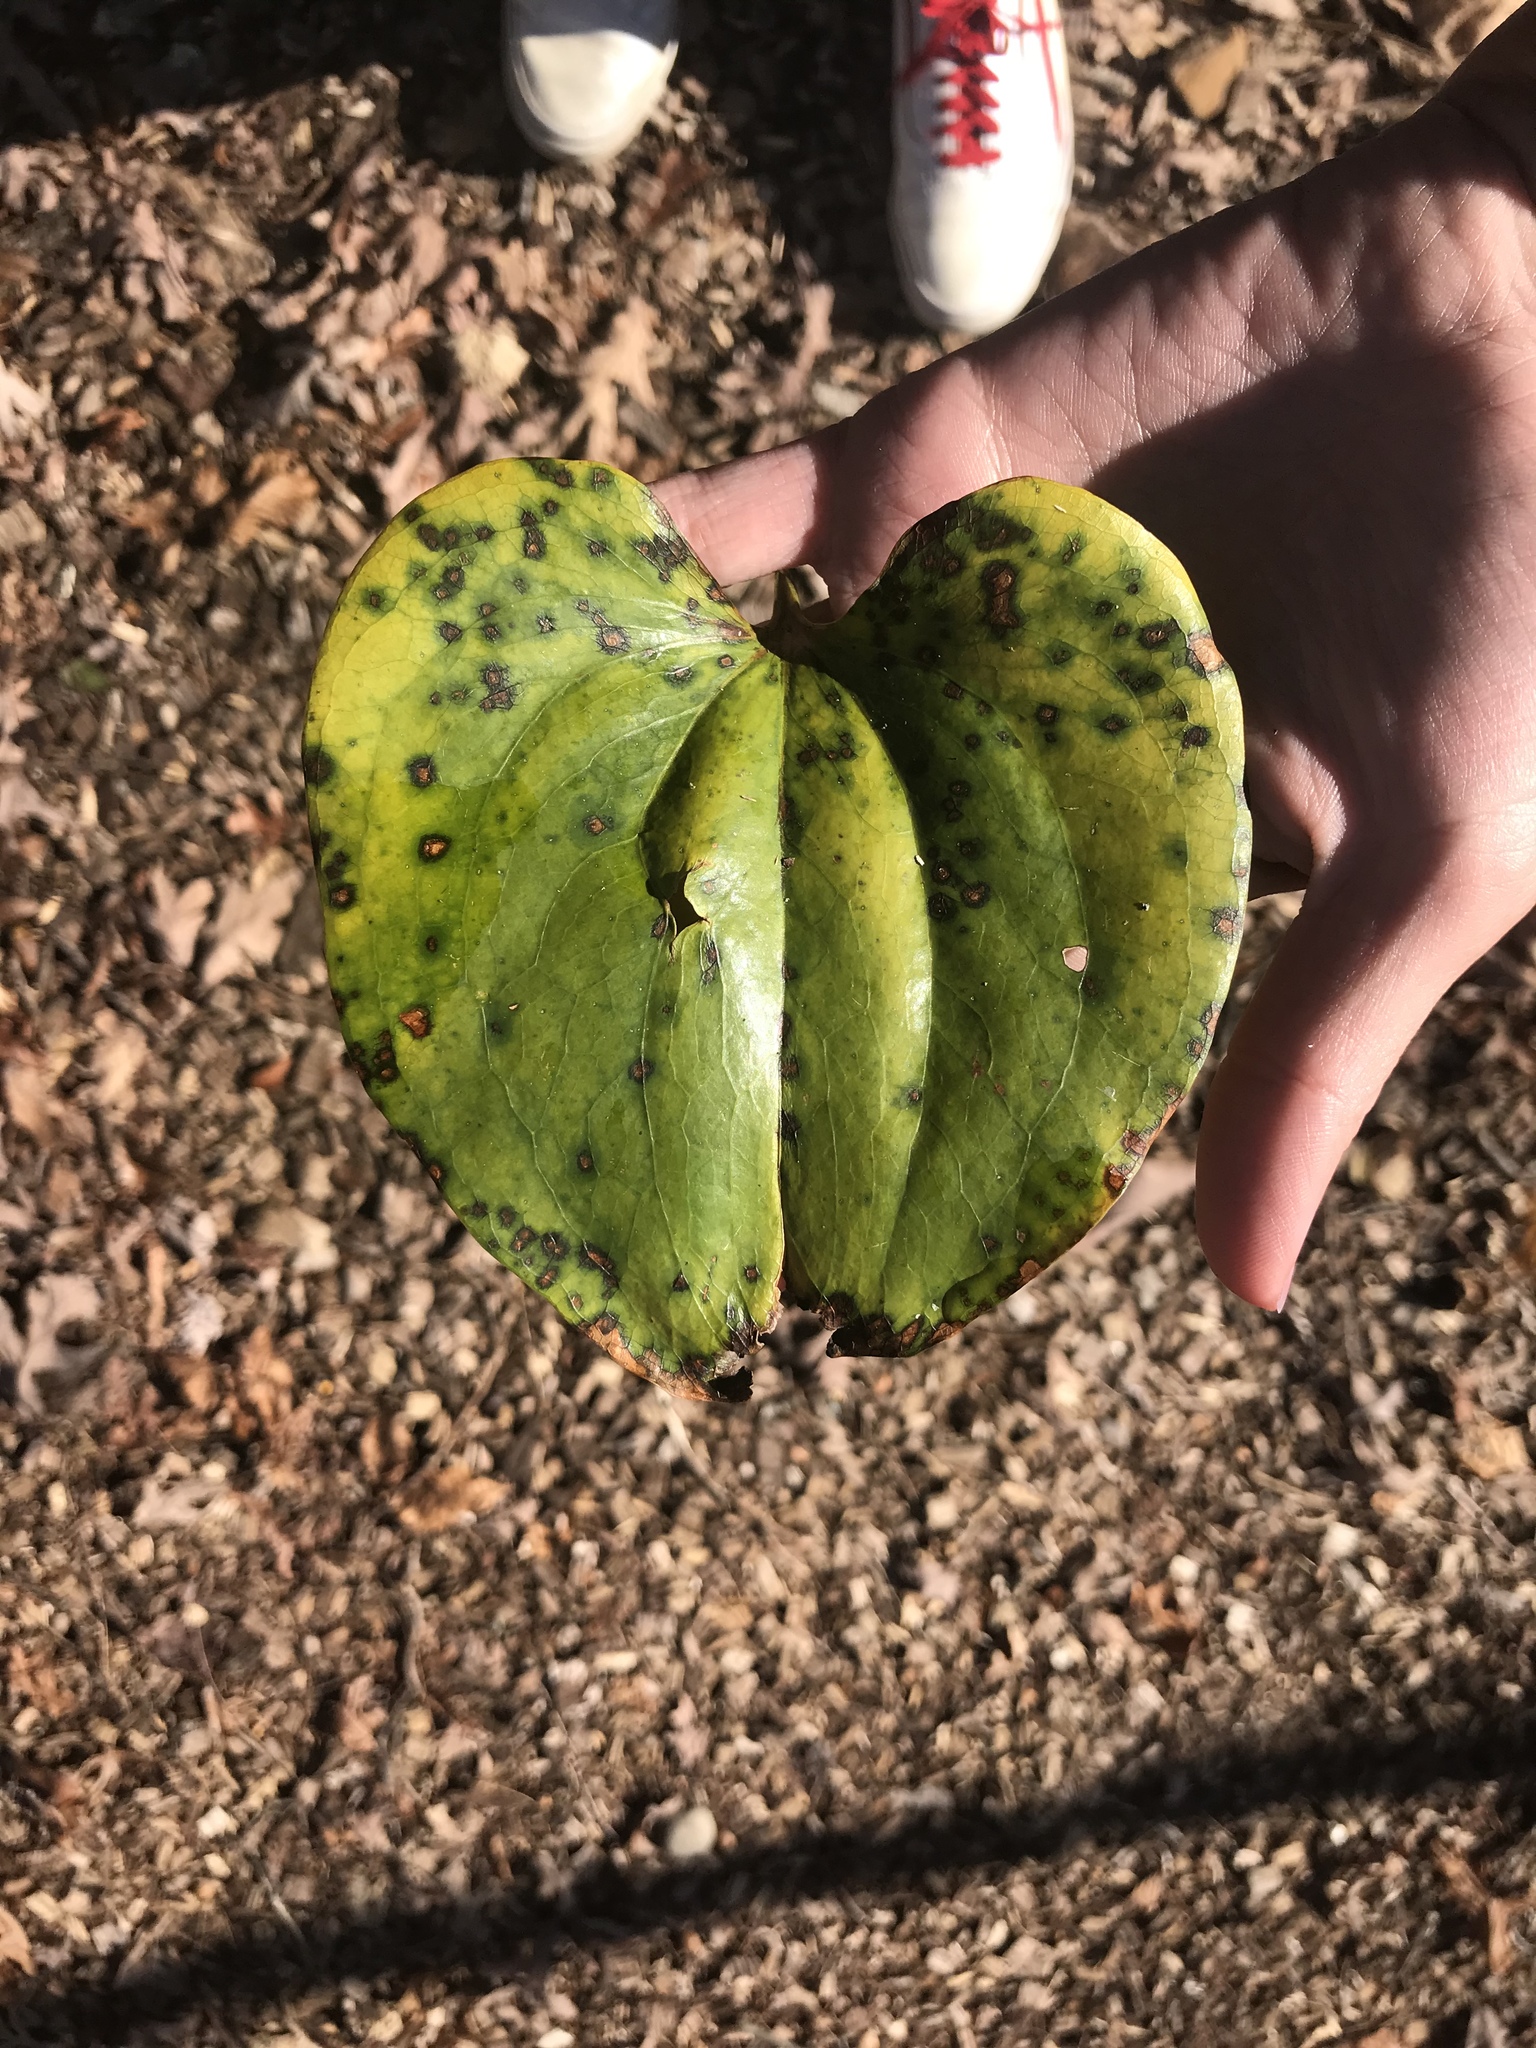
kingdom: Plantae
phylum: Tracheophyta
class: Liliopsida
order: Liliales
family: Smilacaceae
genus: Smilax
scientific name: Smilax rotundifolia
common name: Bullbriar
